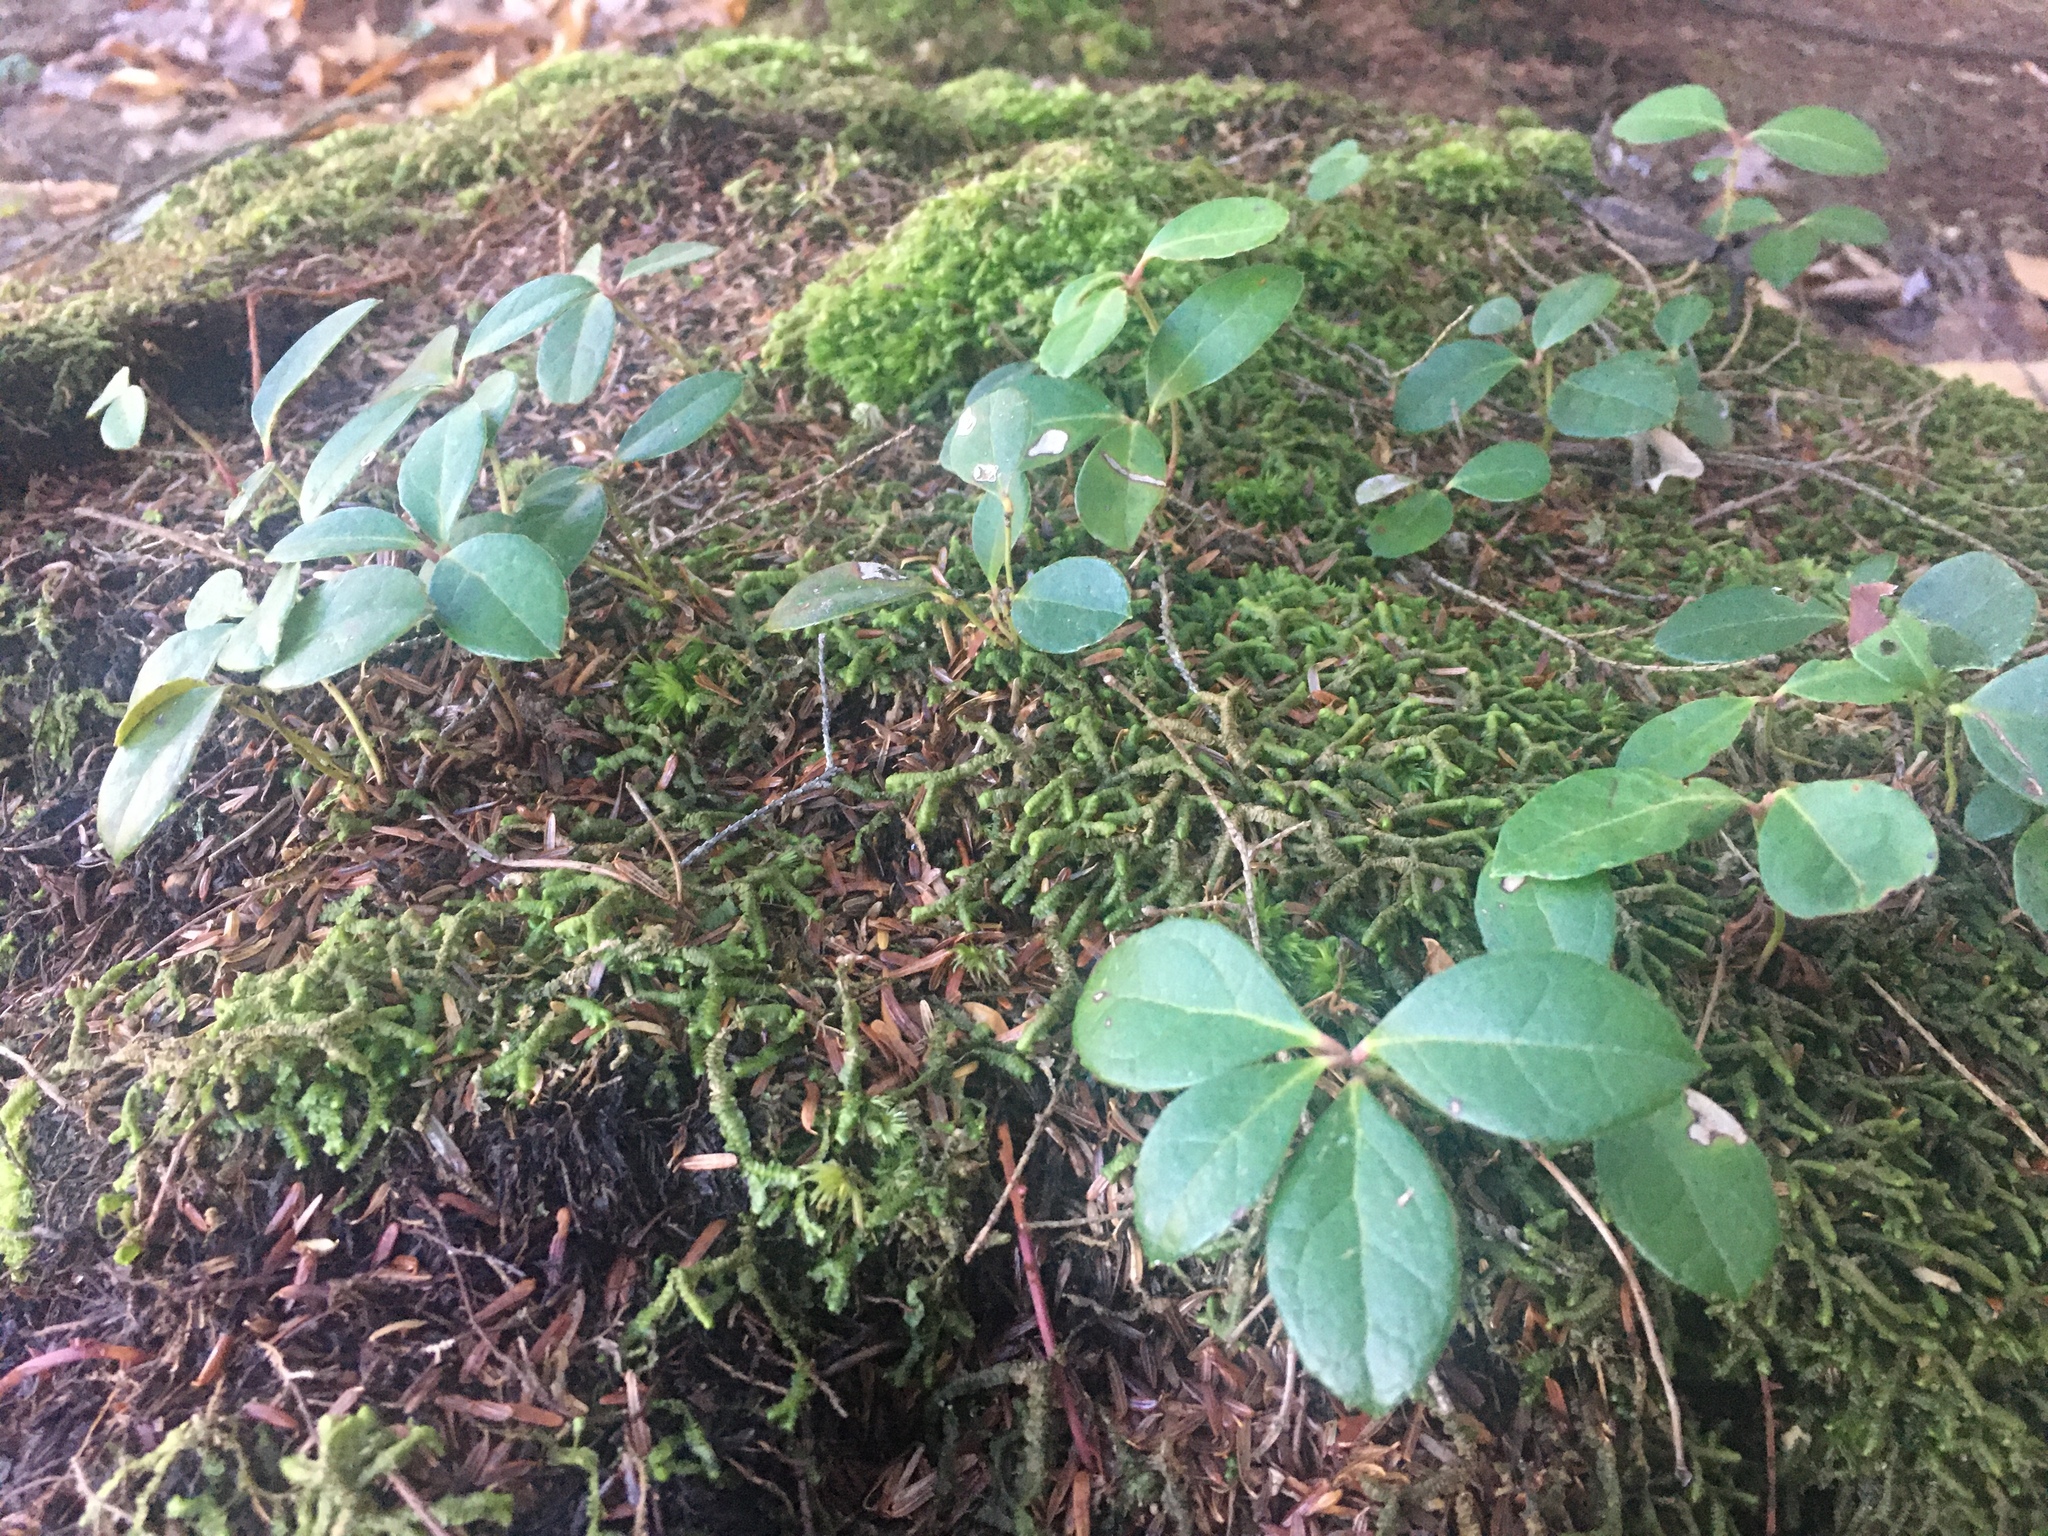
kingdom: Plantae
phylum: Tracheophyta
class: Magnoliopsida
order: Ericales
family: Ericaceae
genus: Gaultheria
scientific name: Gaultheria procumbens
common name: Checkerberry
